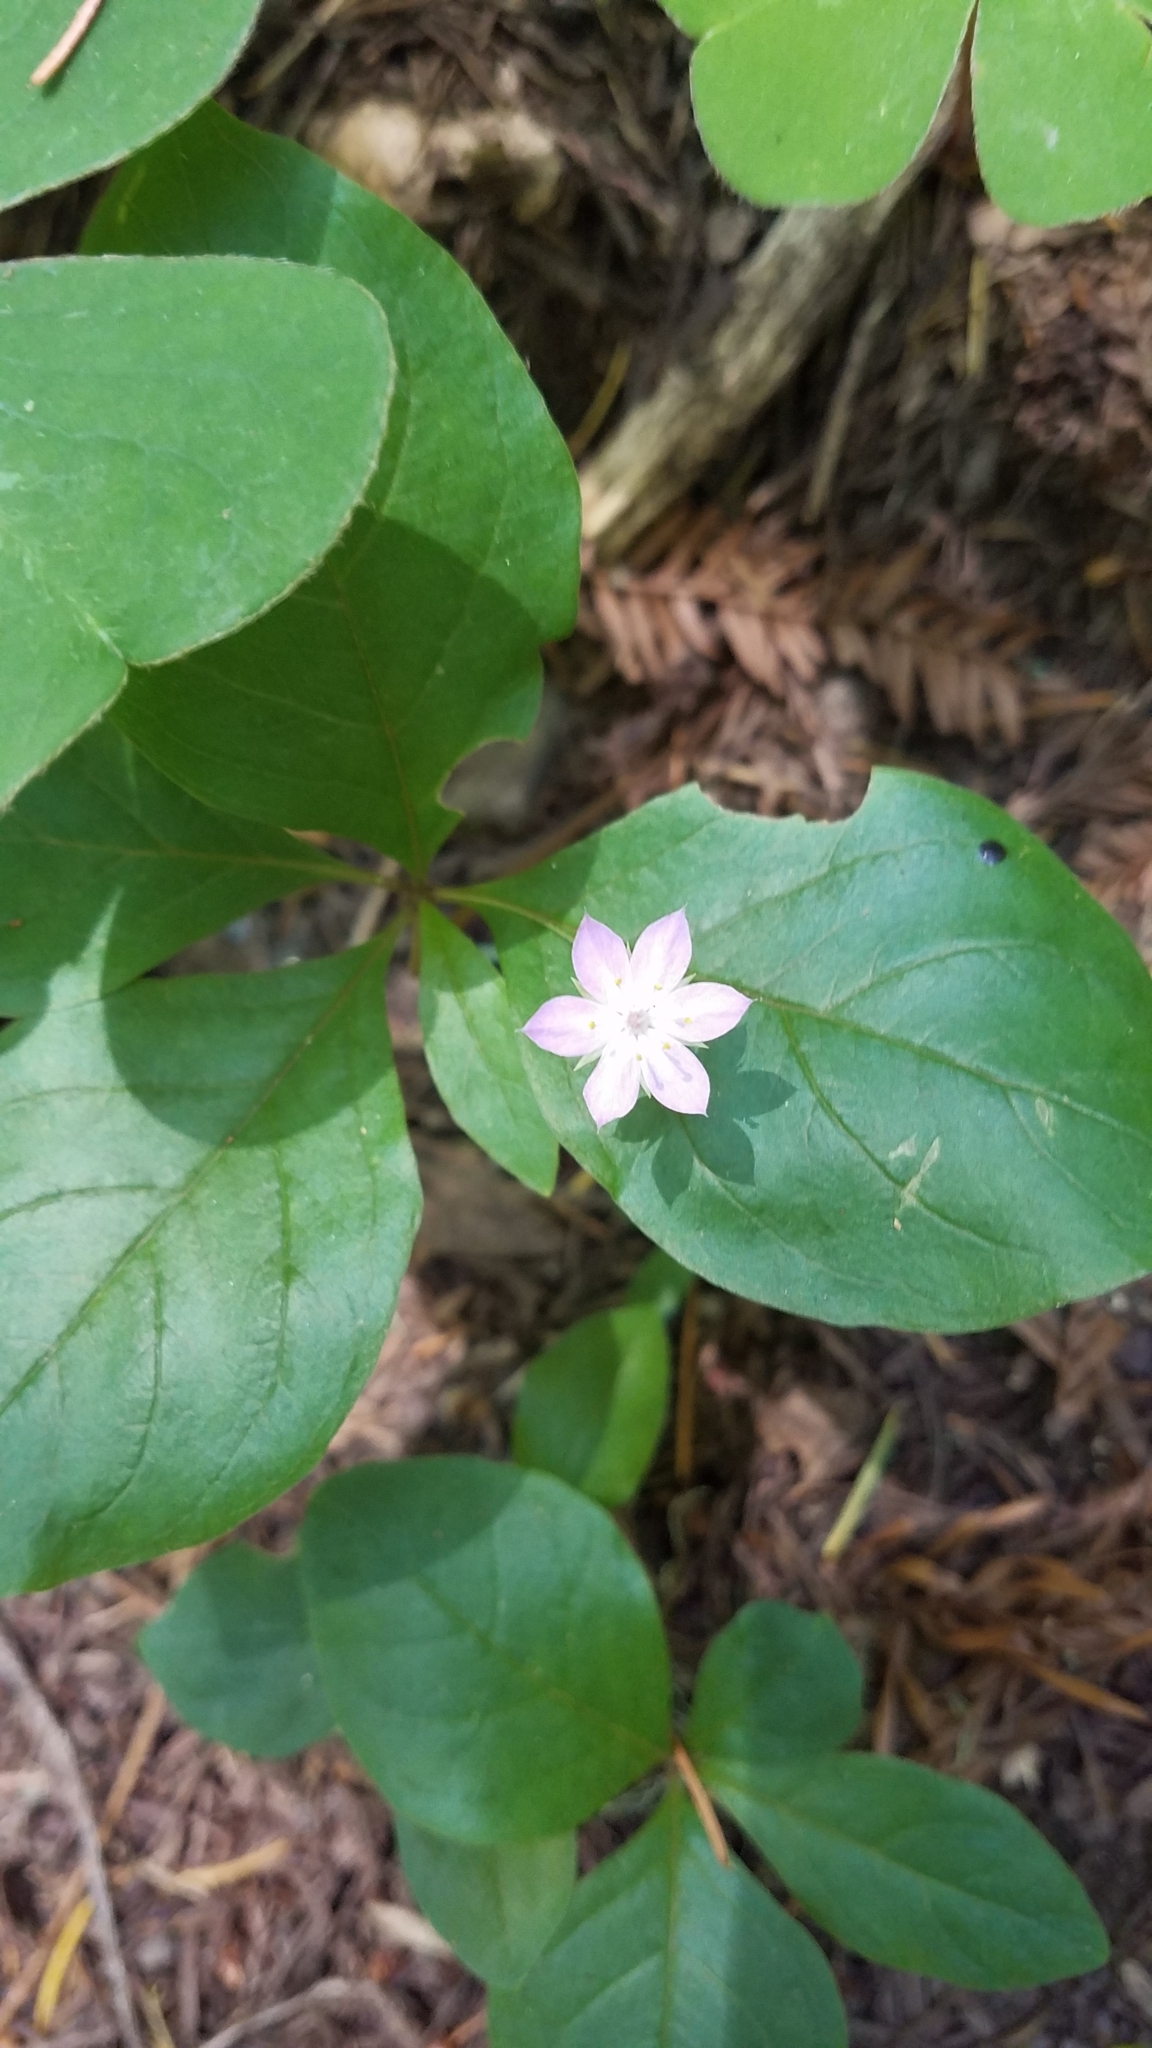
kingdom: Plantae
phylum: Tracheophyta
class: Magnoliopsida
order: Ericales
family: Primulaceae
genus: Lysimachia
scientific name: Lysimachia latifolia
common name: Pacific starflower
